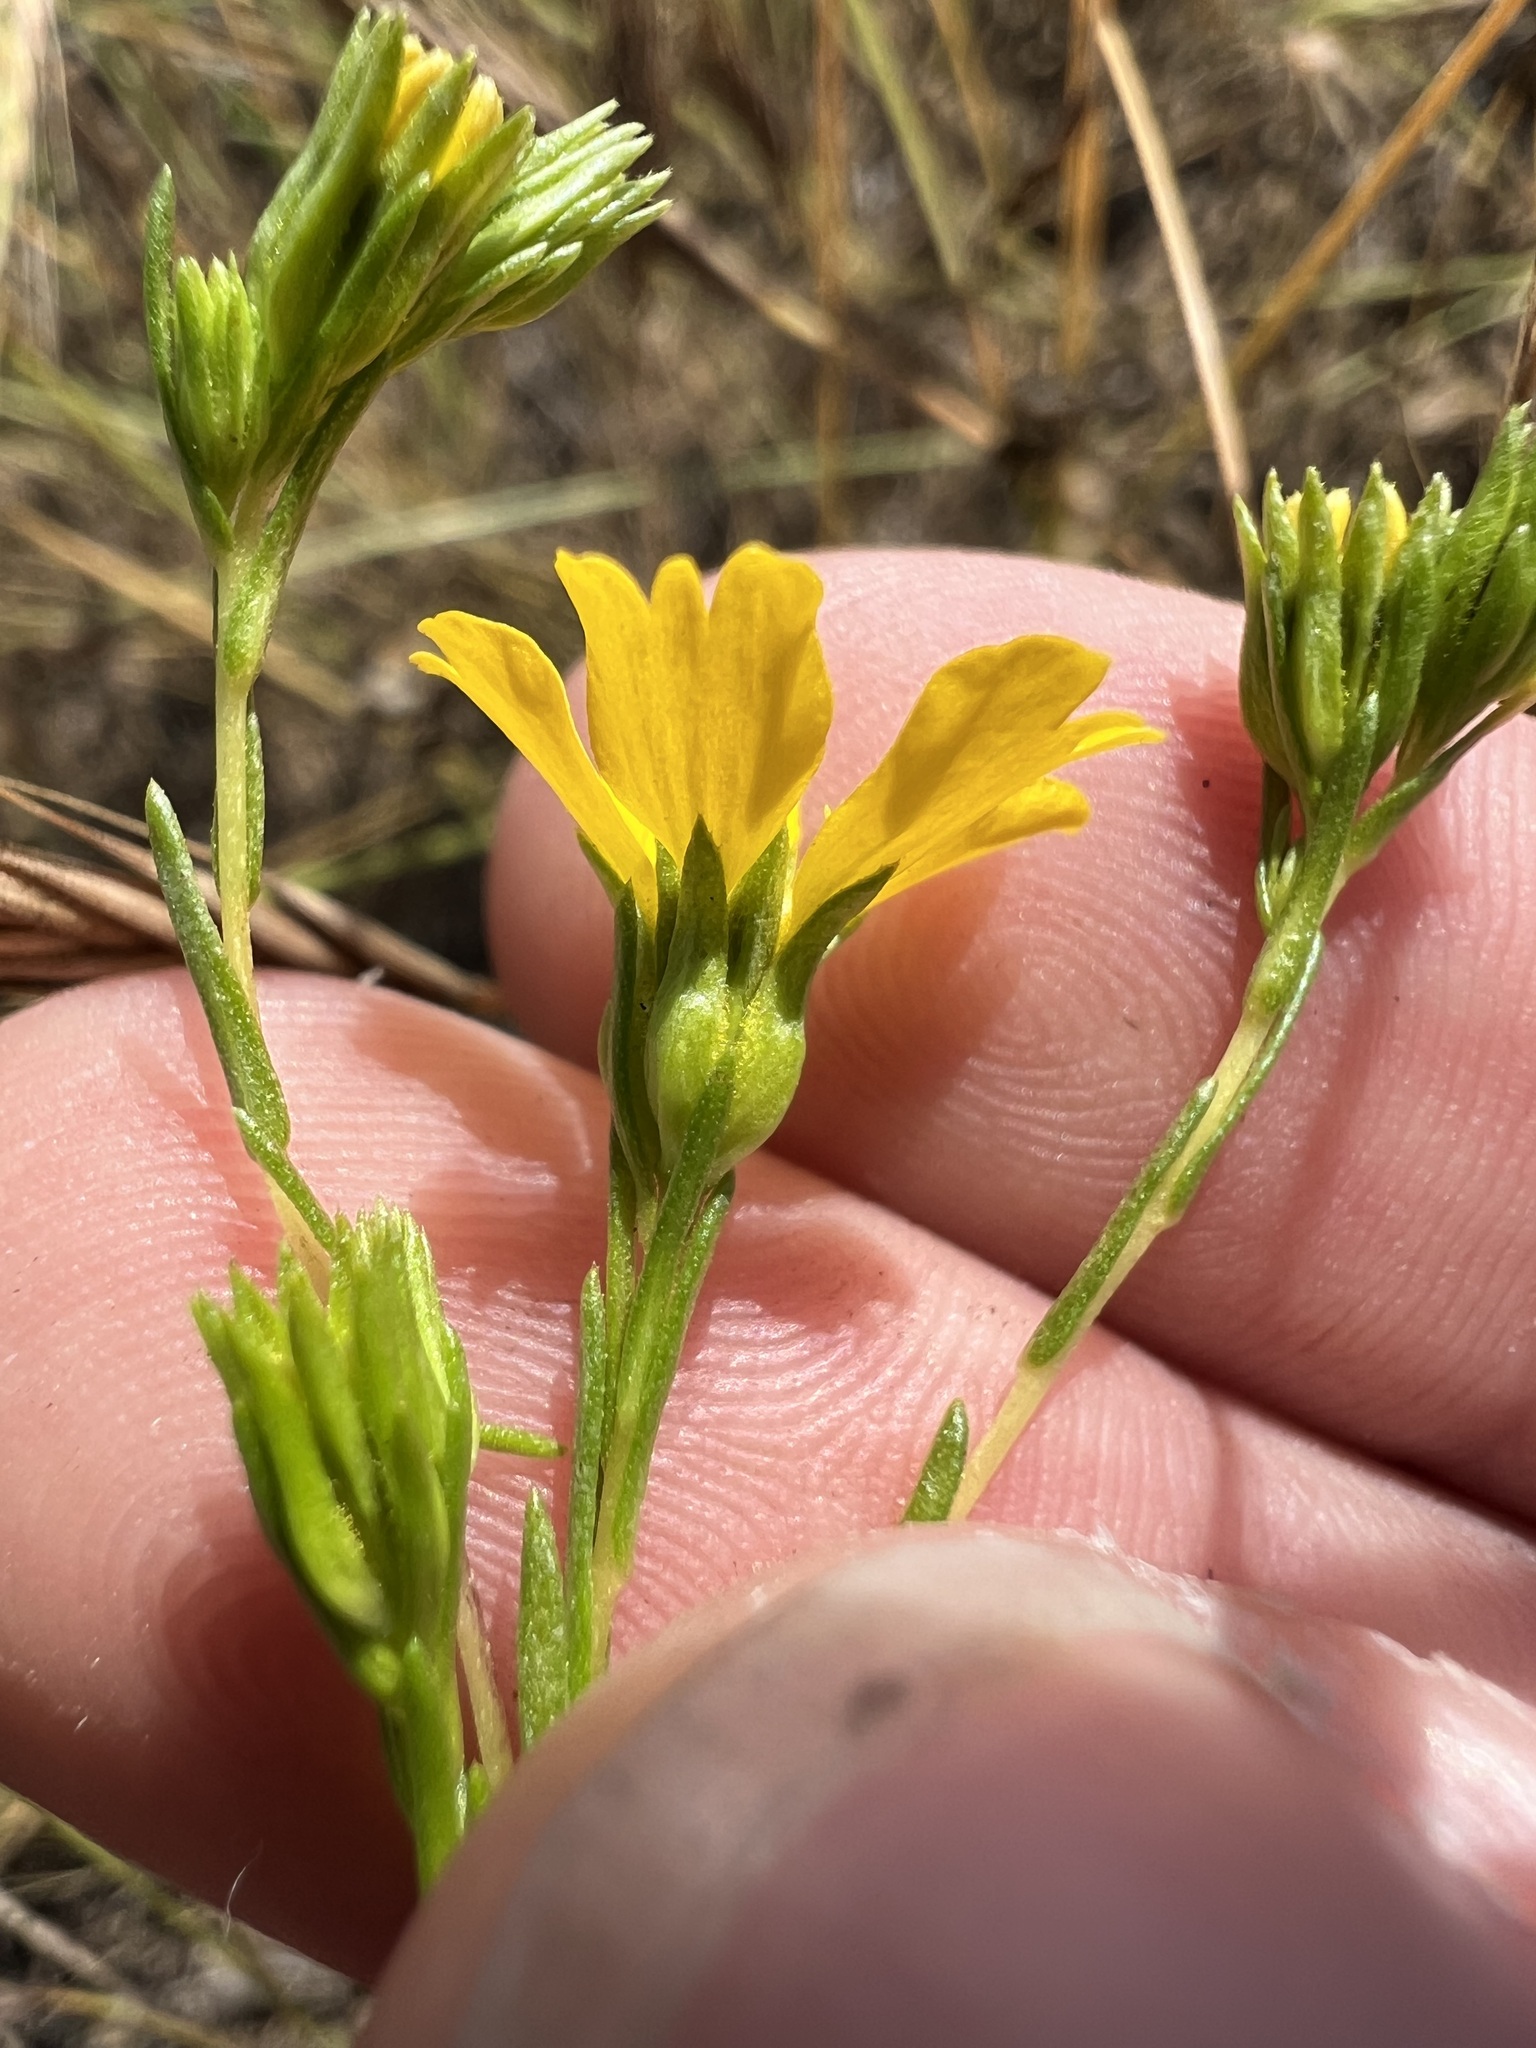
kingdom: Plantae
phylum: Tracheophyta
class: Magnoliopsida
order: Asterales
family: Asteraceae
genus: Deinandra
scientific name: Deinandra fasciculata
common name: Clustered tarweed
